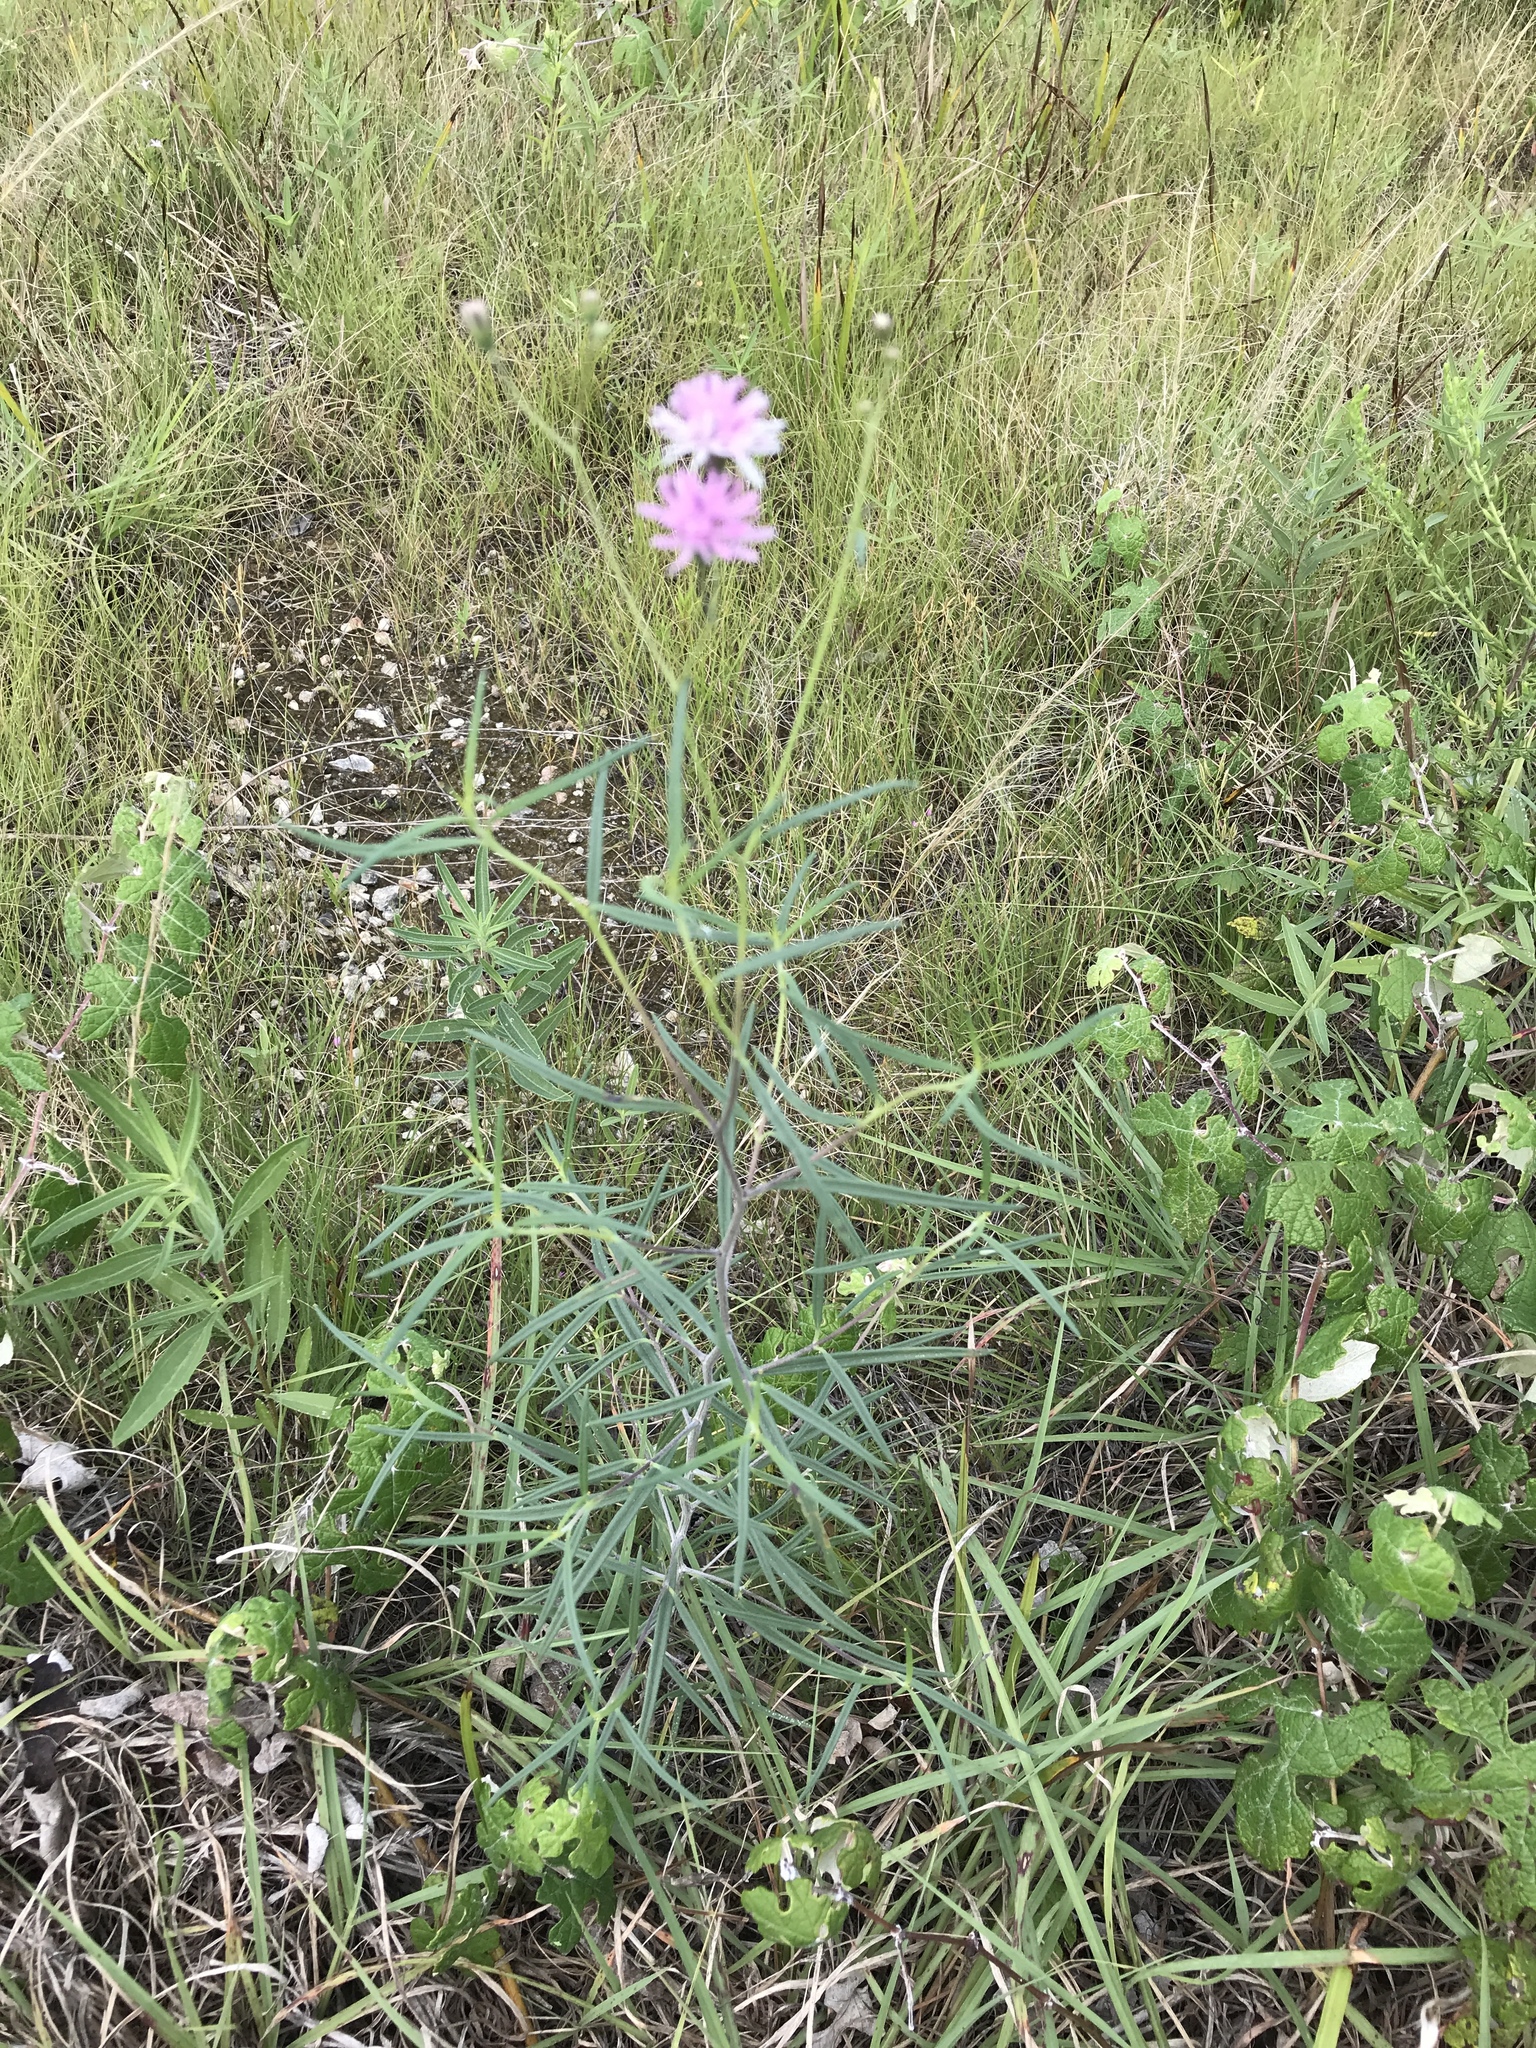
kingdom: Plantae
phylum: Tracheophyta
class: Magnoliopsida
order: Asterales
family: Asteraceae
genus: Palafoxia
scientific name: Palafoxia callosa
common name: Small palafox
